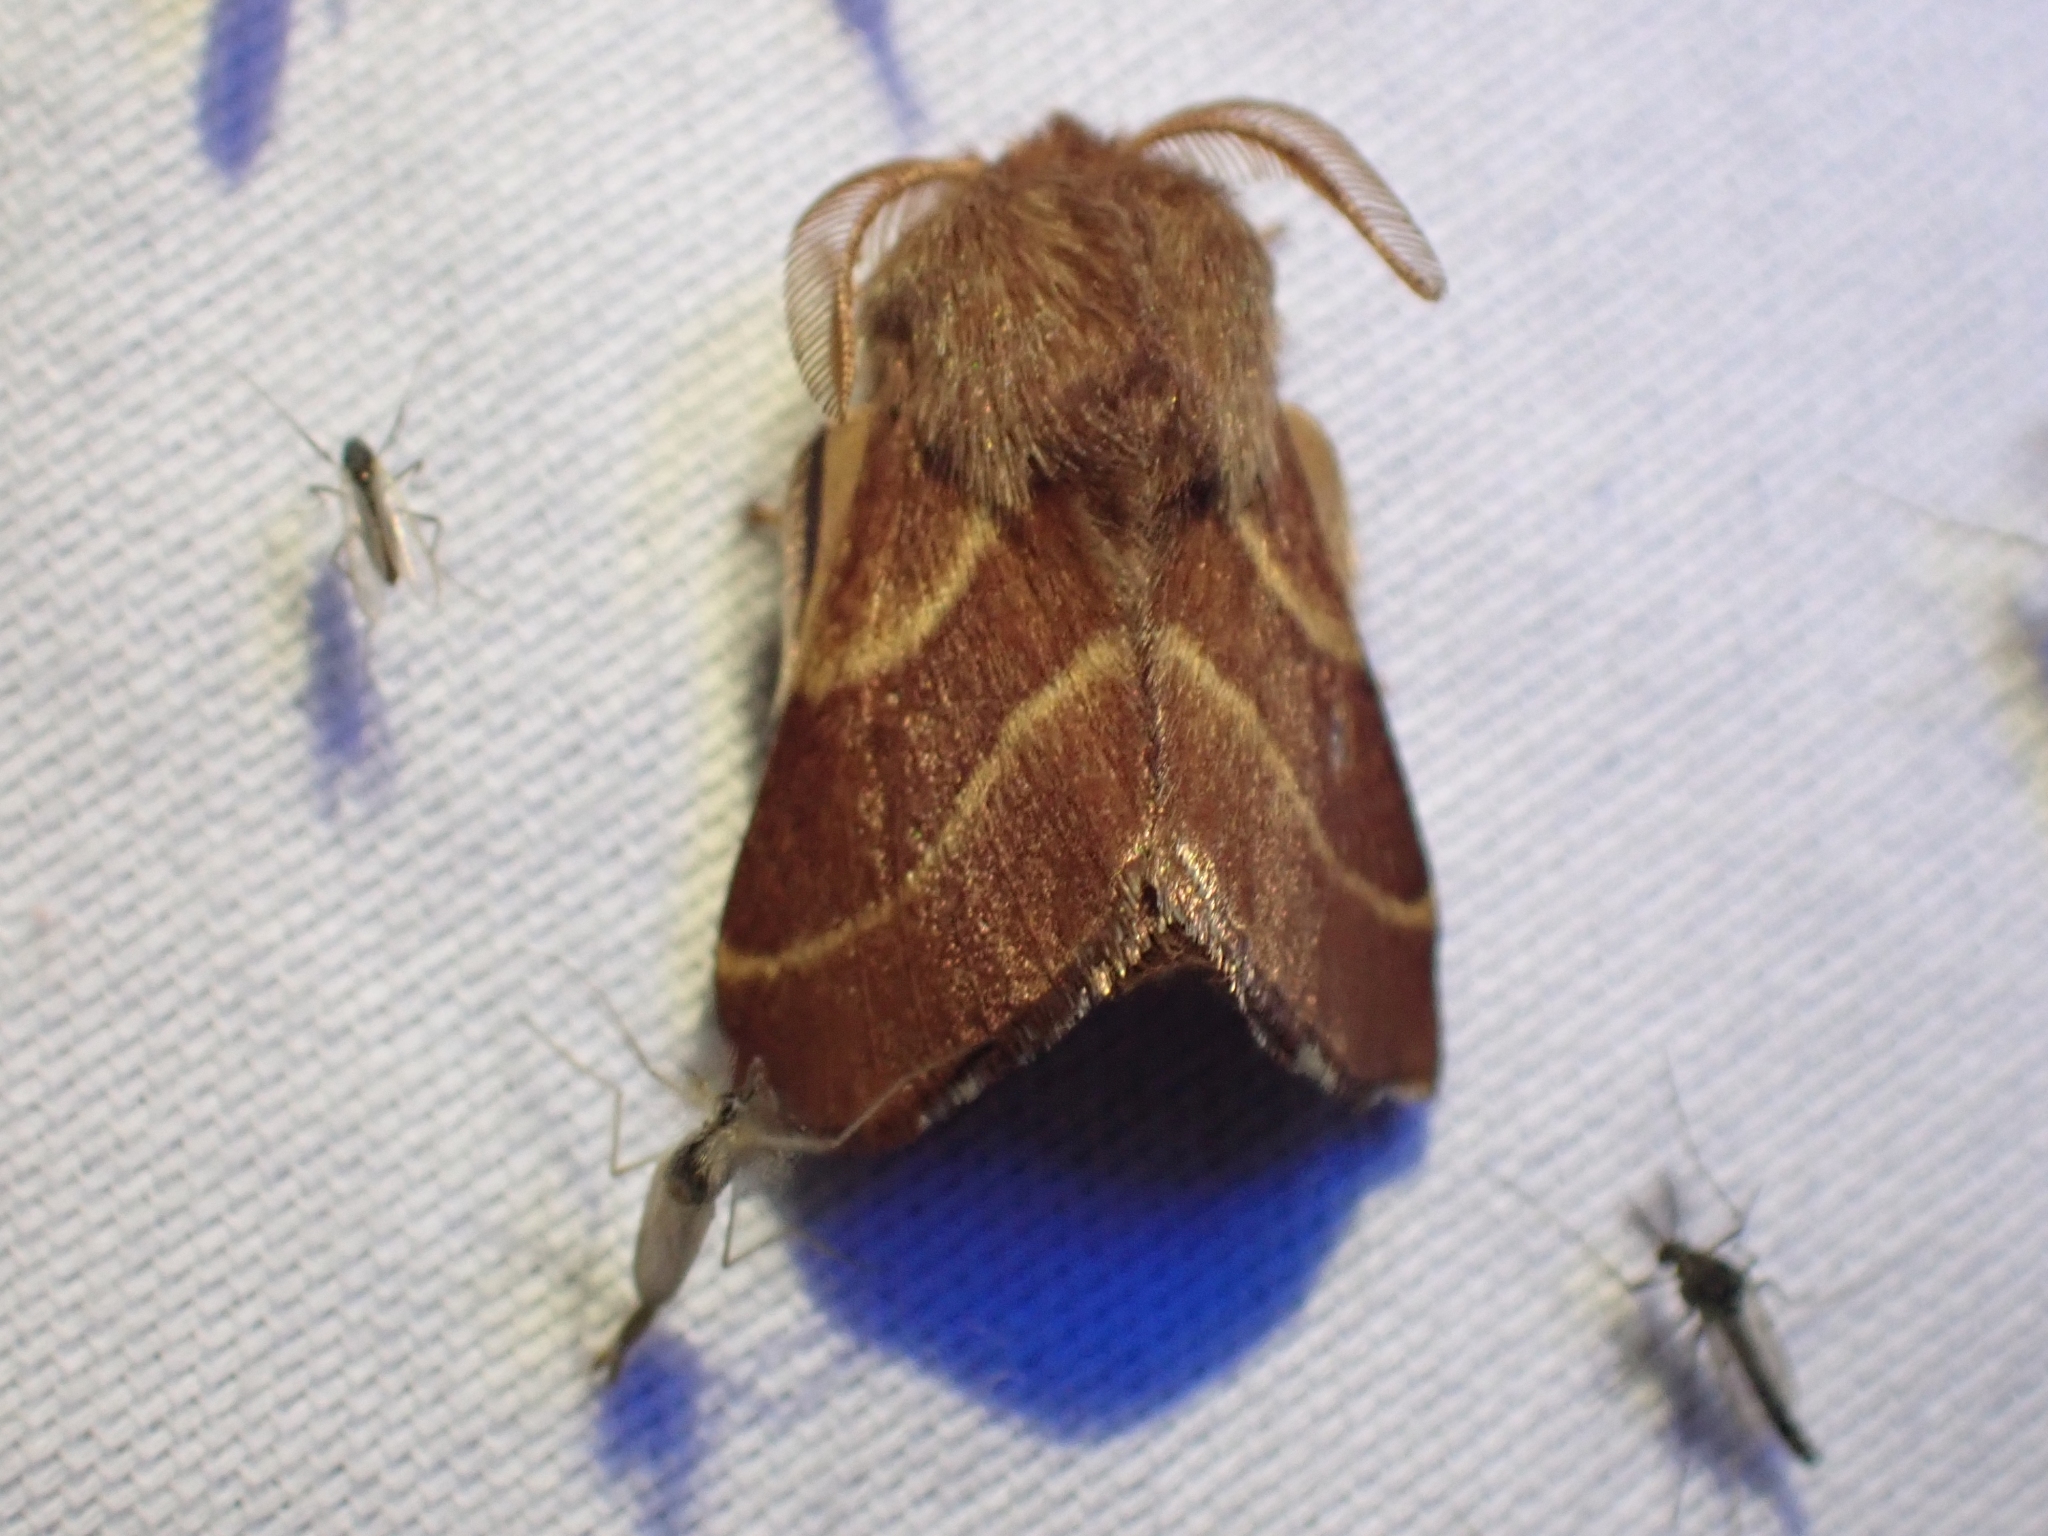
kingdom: Animalia
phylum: Arthropoda
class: Insecta
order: Lepidoptera
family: Lasiocampidae
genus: Malacosoma
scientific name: Malacosoma californica
